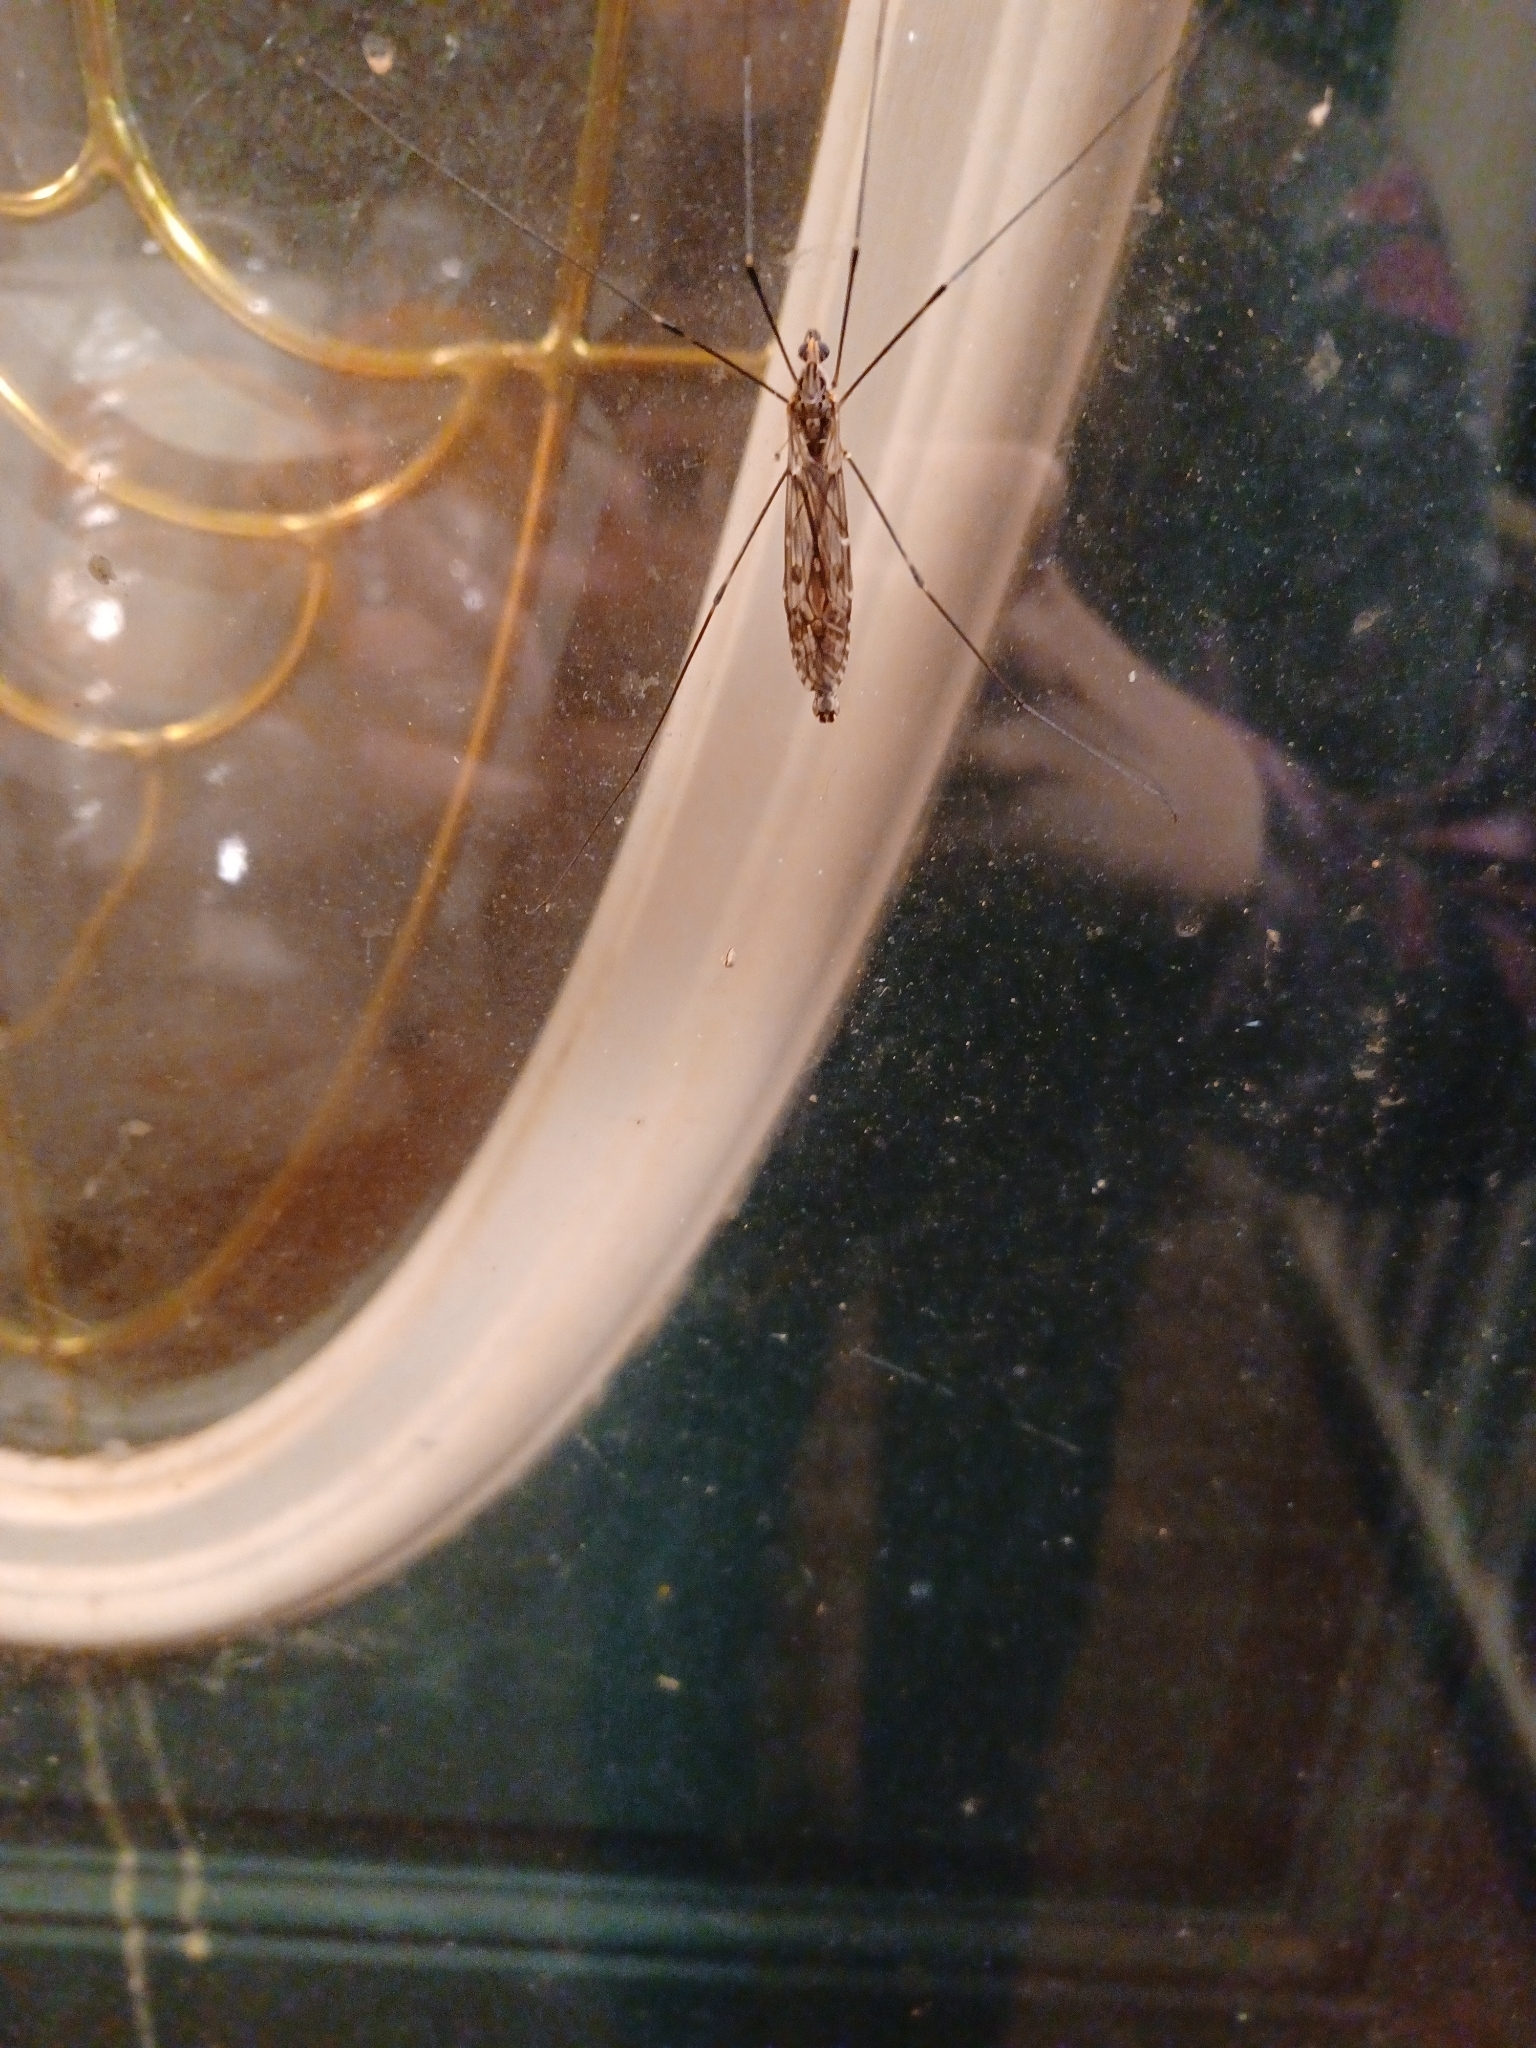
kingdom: Animalia
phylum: Arthropoda
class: Insecta
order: Diptera
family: Tipulidae
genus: Tipula
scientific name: Tipula abdominalis
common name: Giant crane fly
